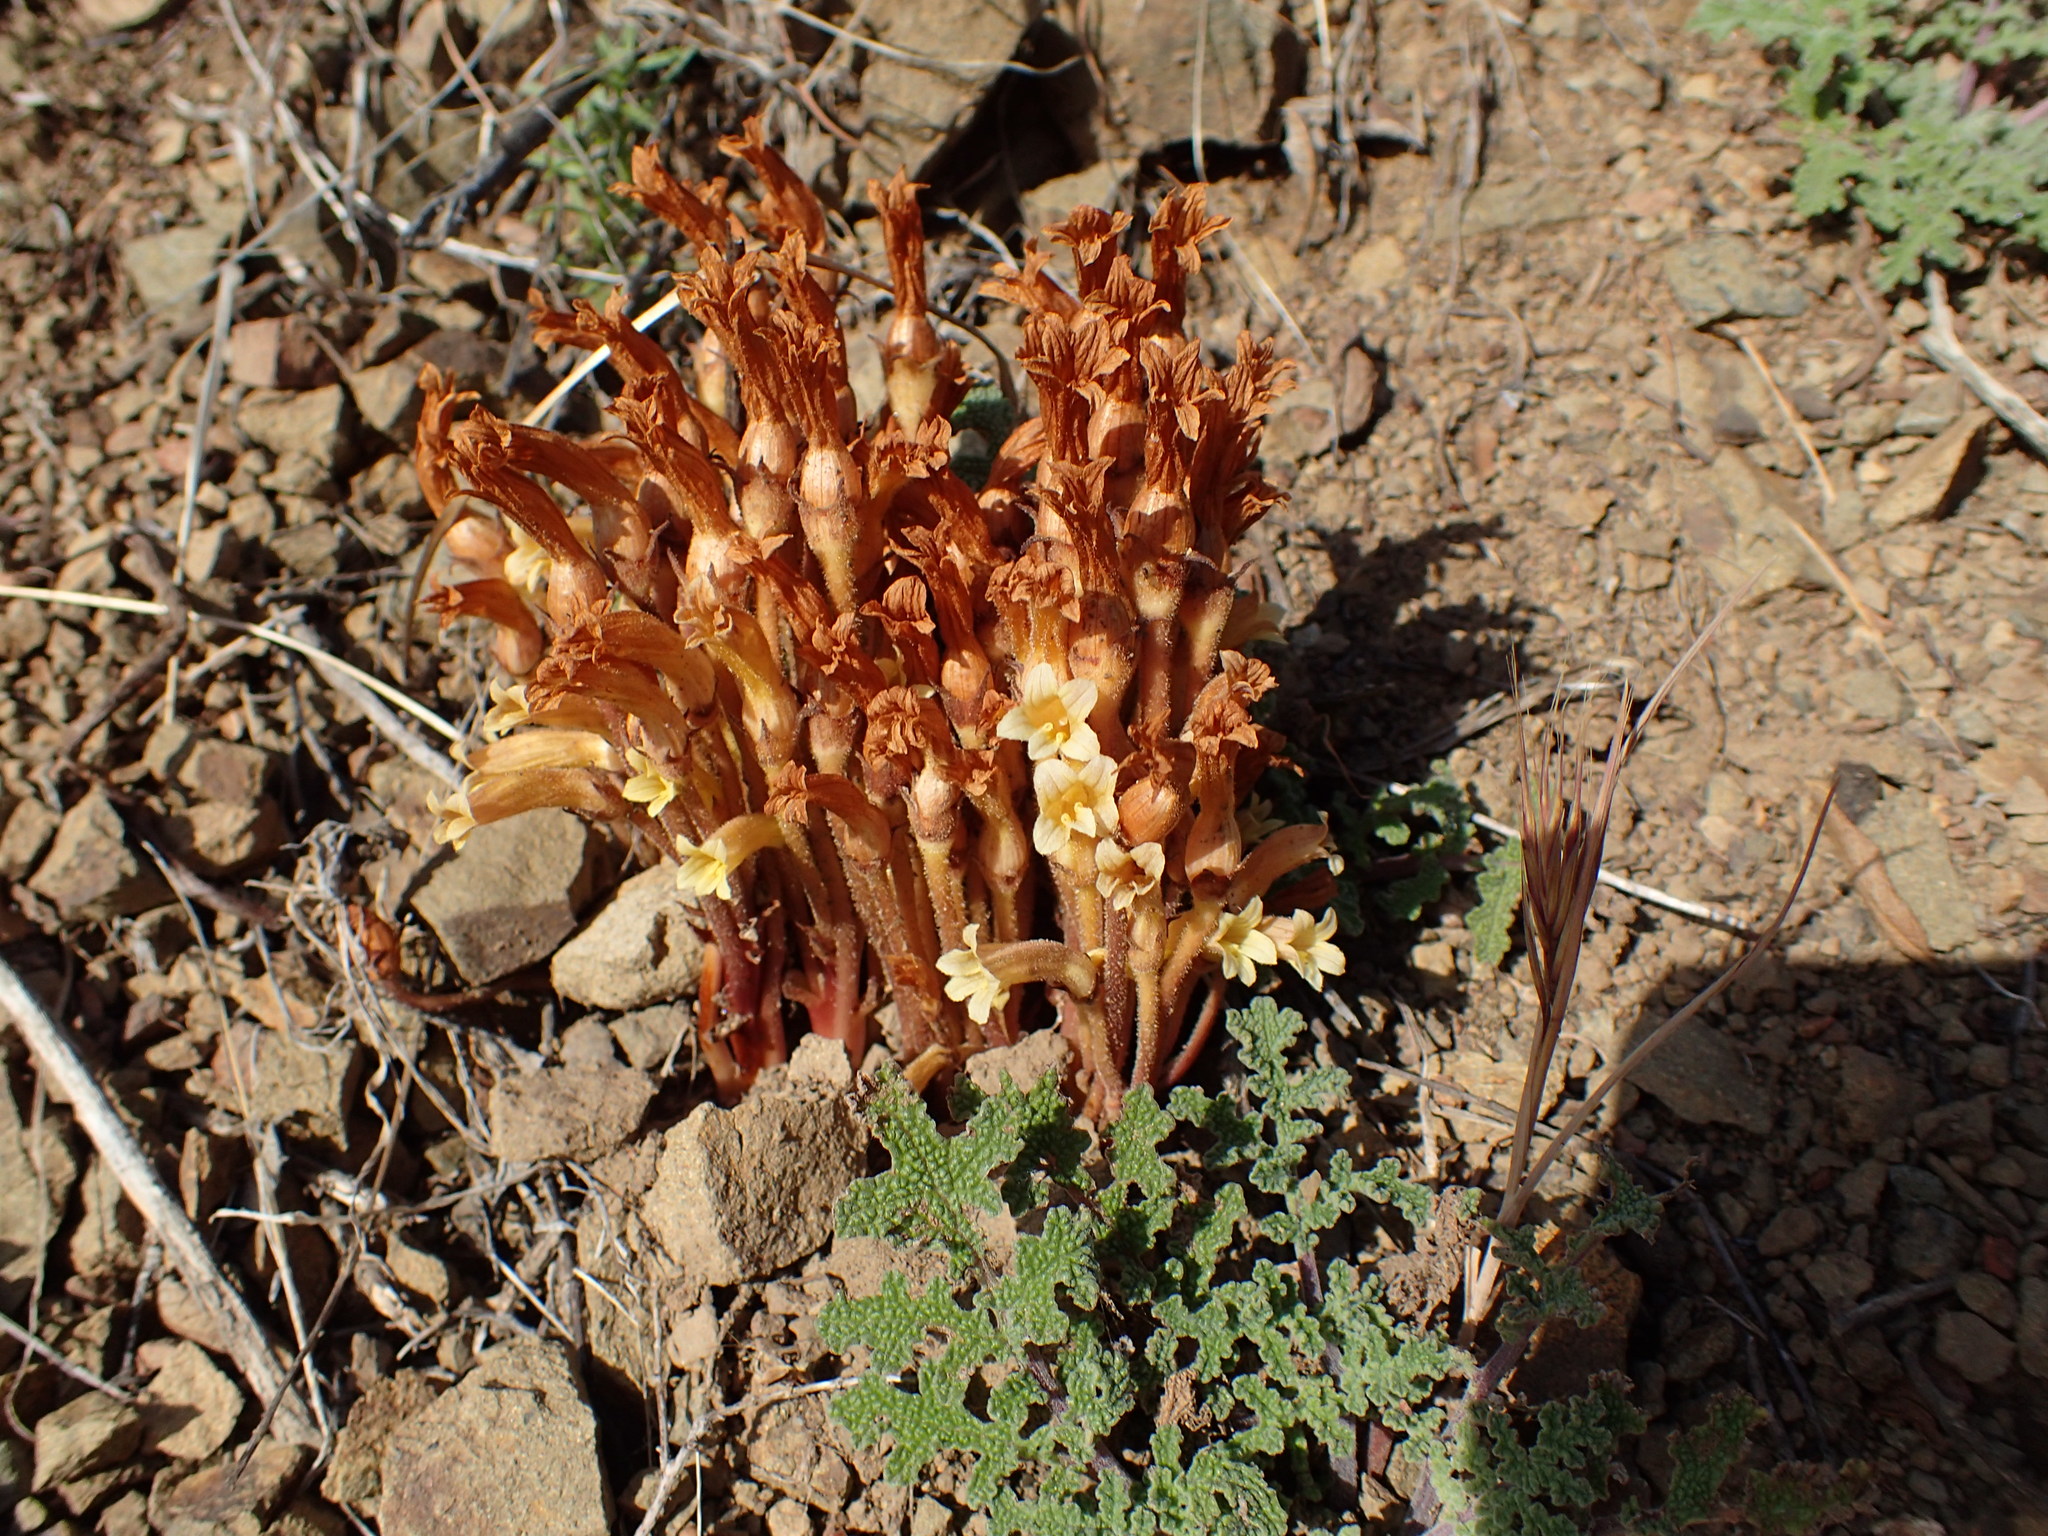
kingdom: Plantae
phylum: Tracheophyta
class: Magnoliopsida
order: Lamiales
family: Orobanchaceae
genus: Aphyllon
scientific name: Aphyllon franciscanum
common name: San francisco broomrape
